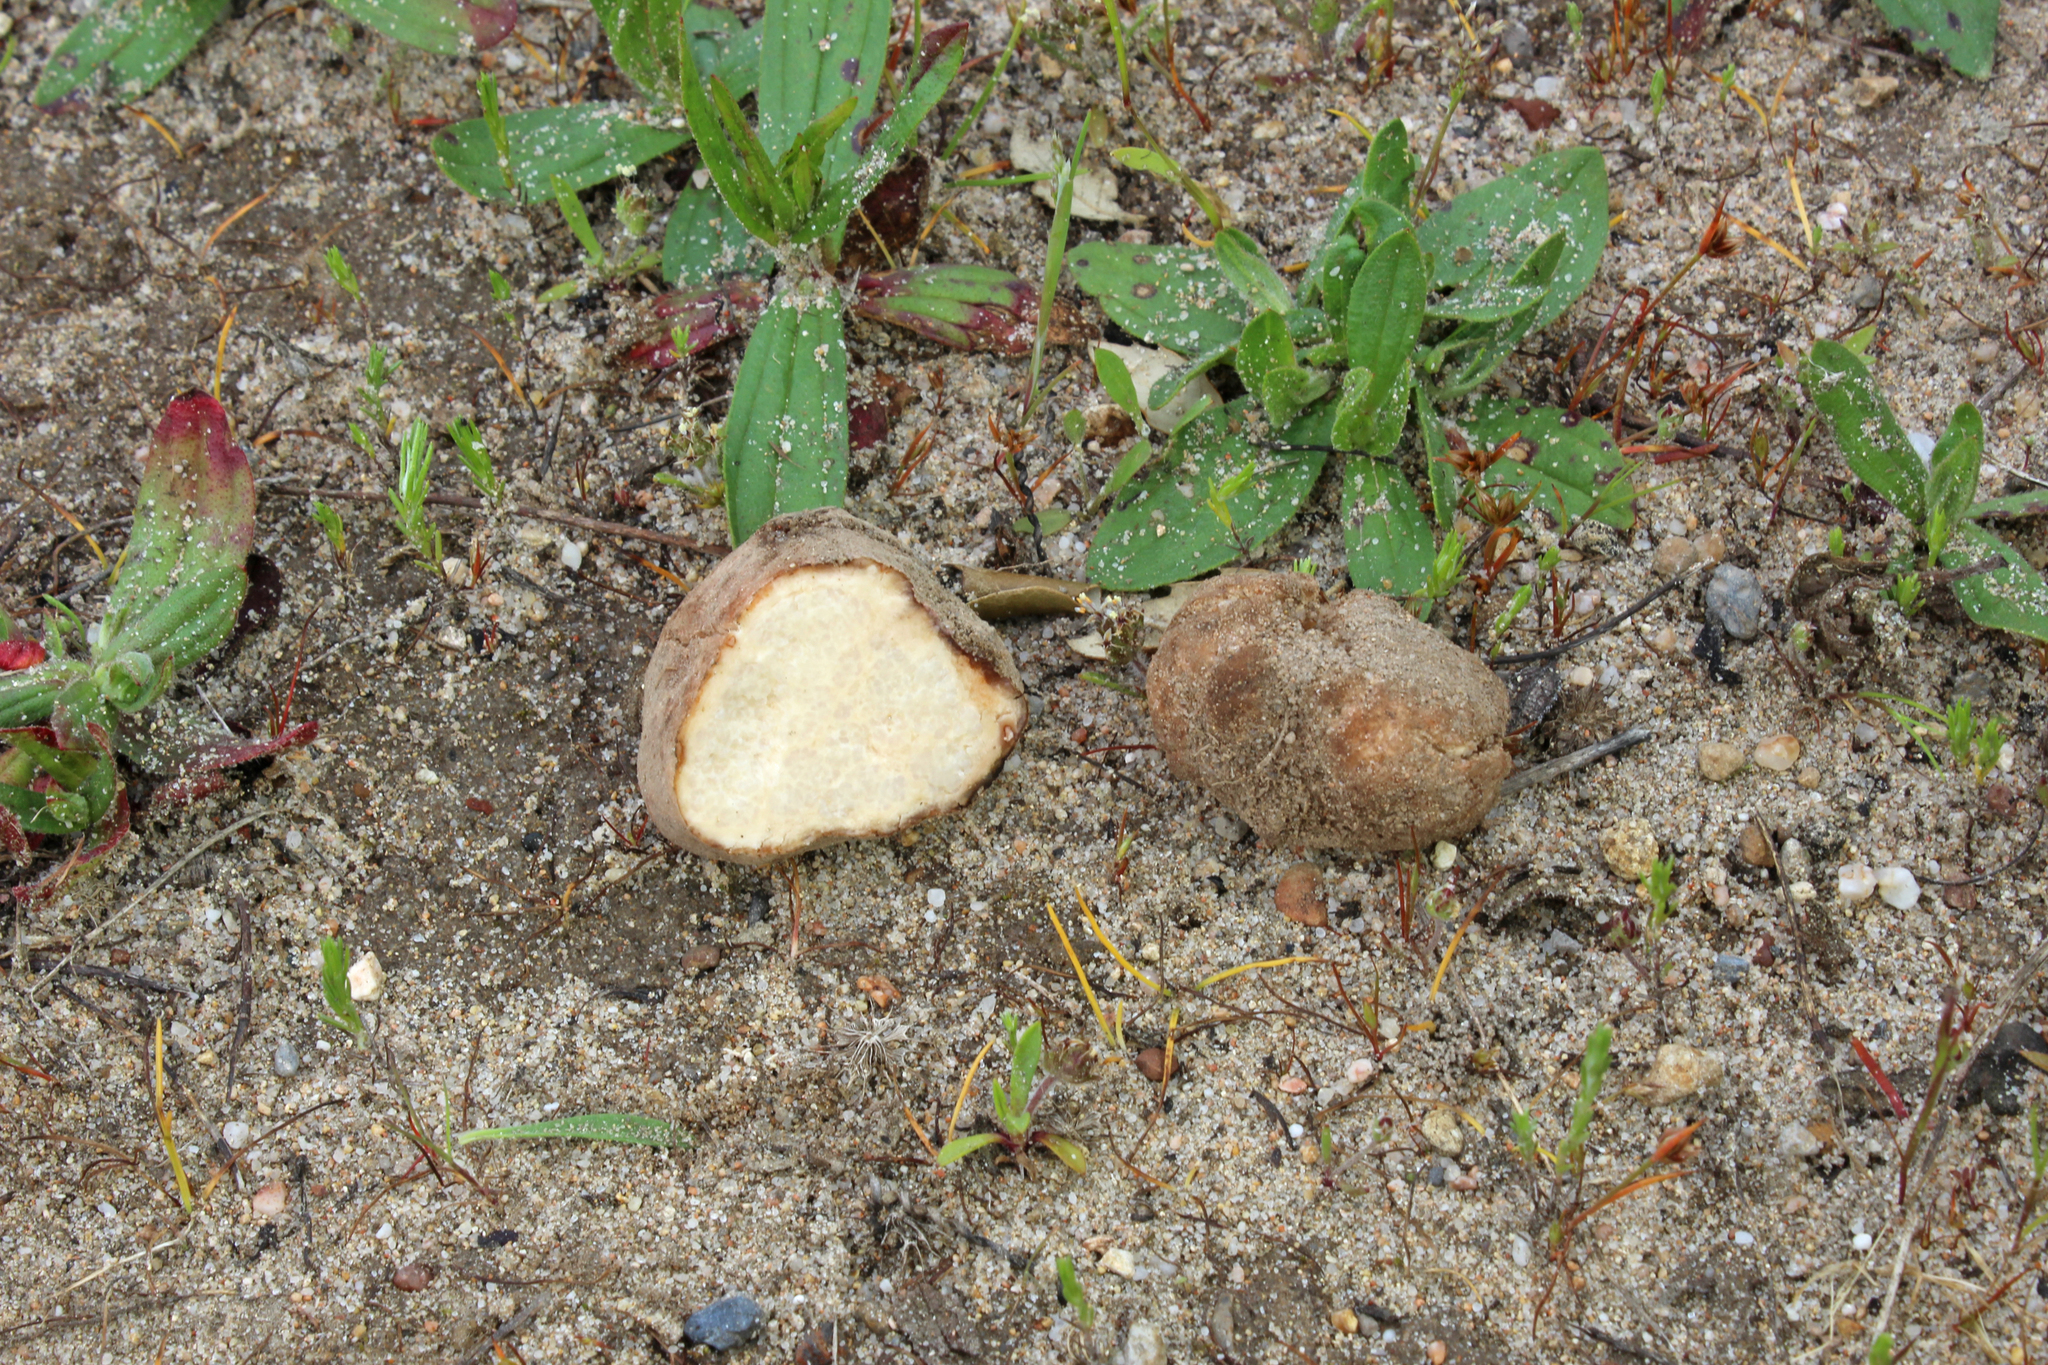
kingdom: Fungi
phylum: Ascomycota
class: Pezizomycetes
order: Pezizales
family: Pezizaceae
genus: Terfezia
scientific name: Terfezia arenaria
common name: Moroccan desert truffle
